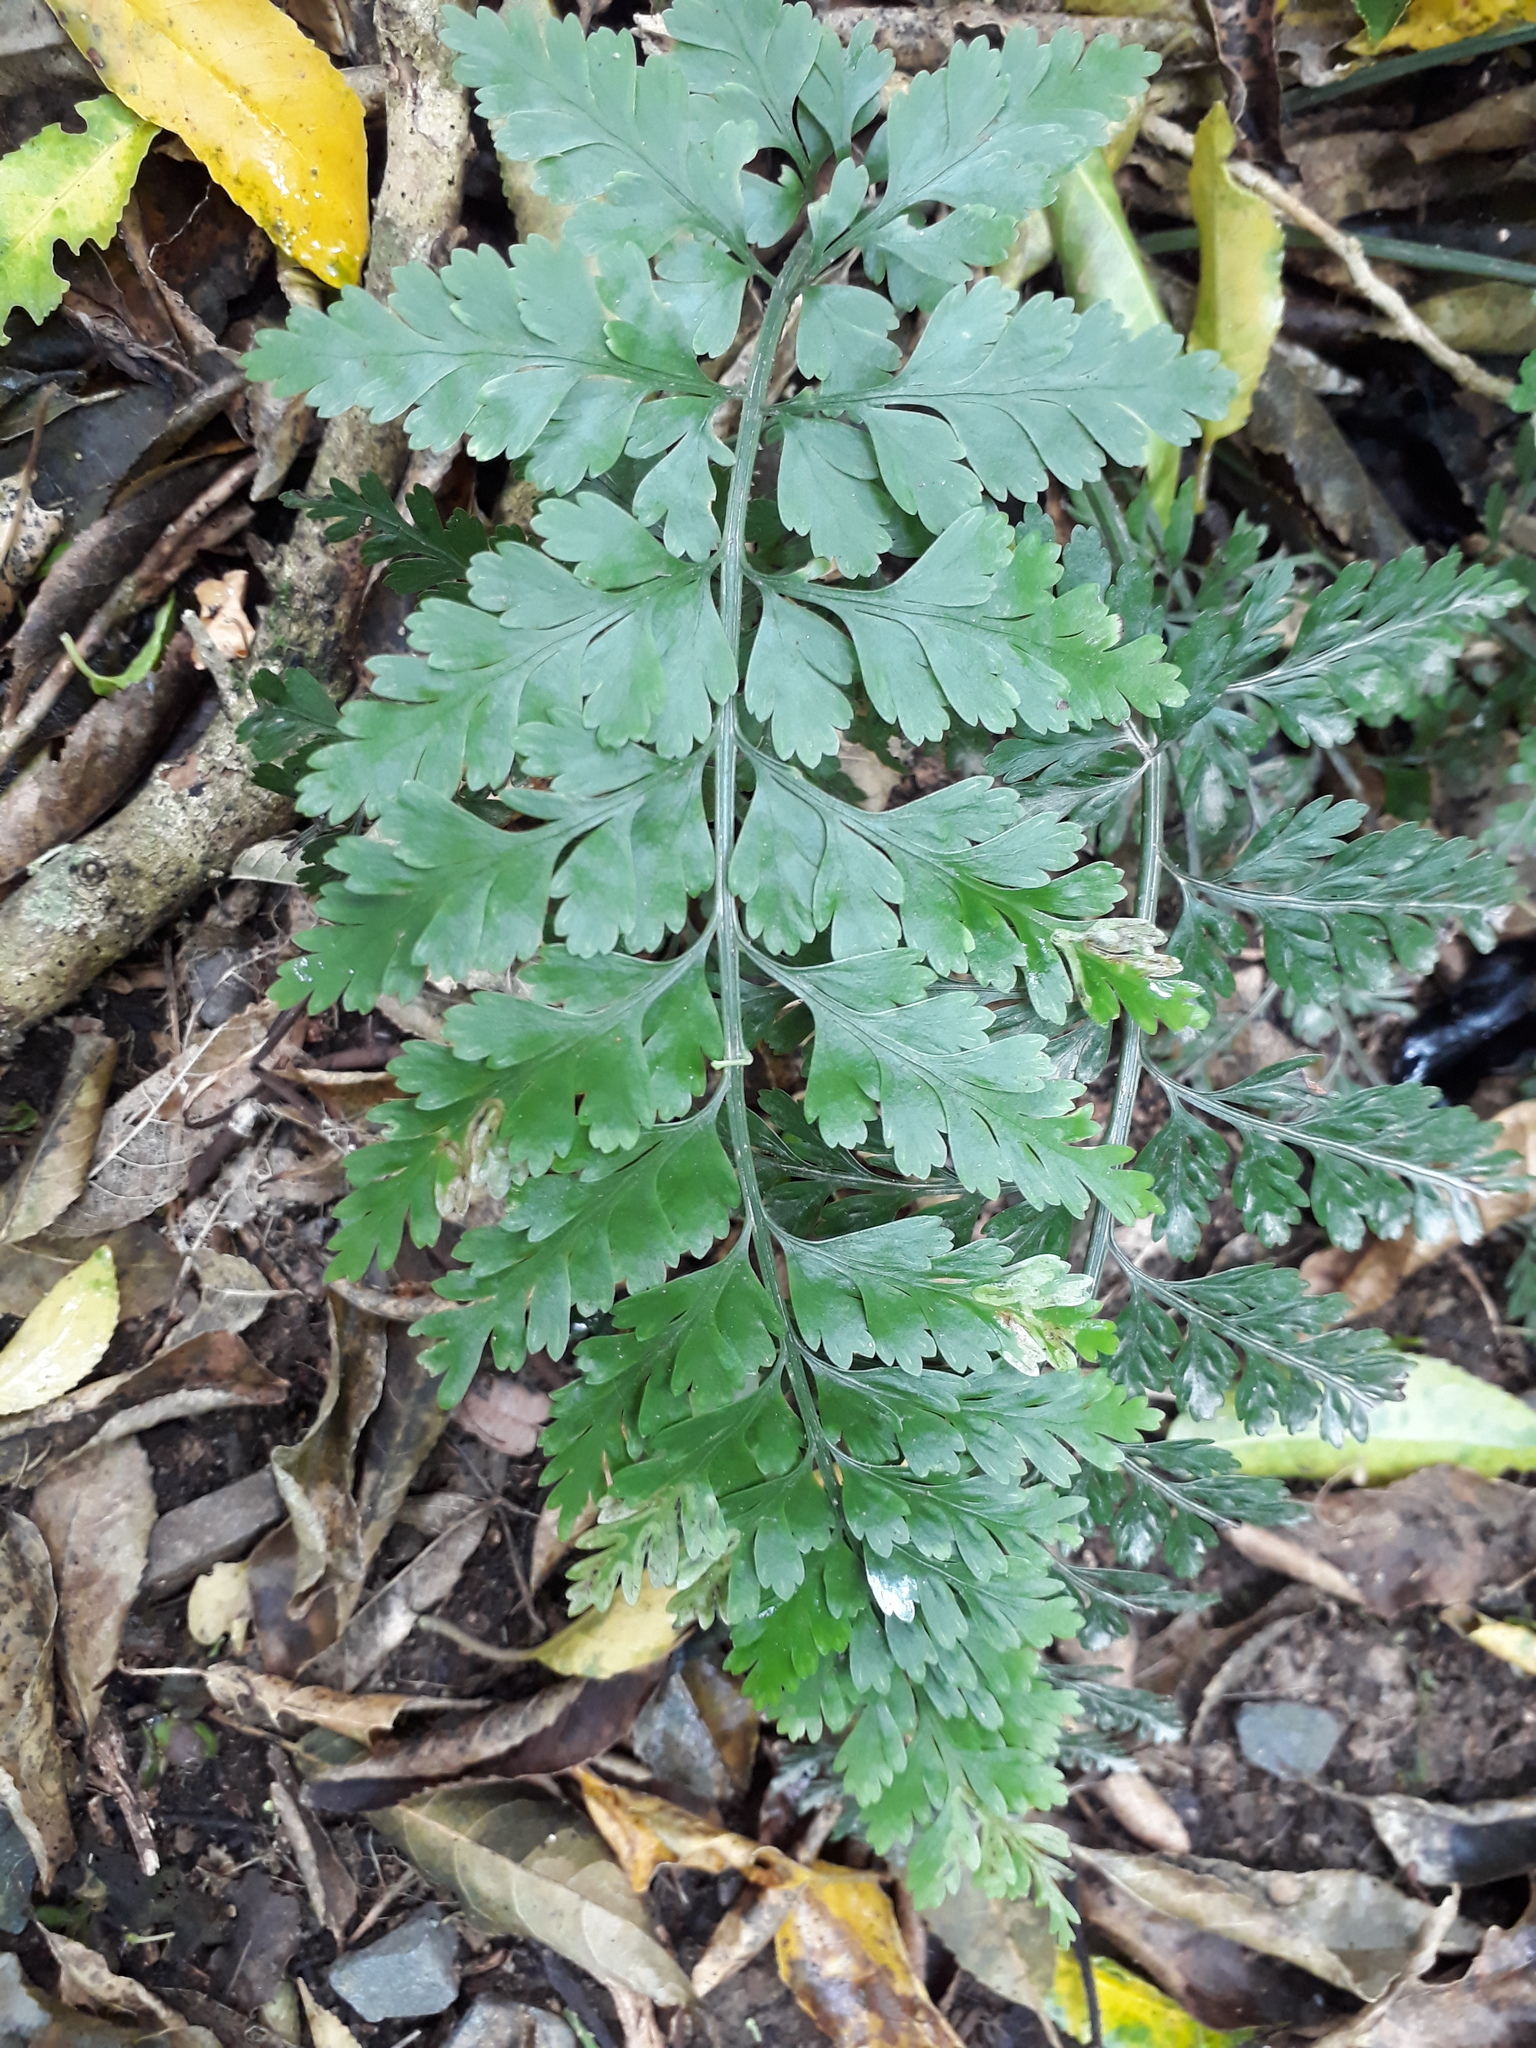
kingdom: Plantae
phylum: Tracheophyta
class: Polypodiopsida
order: Polypodiales
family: Aspleniaceae
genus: Asplenium
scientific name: Asplenium
